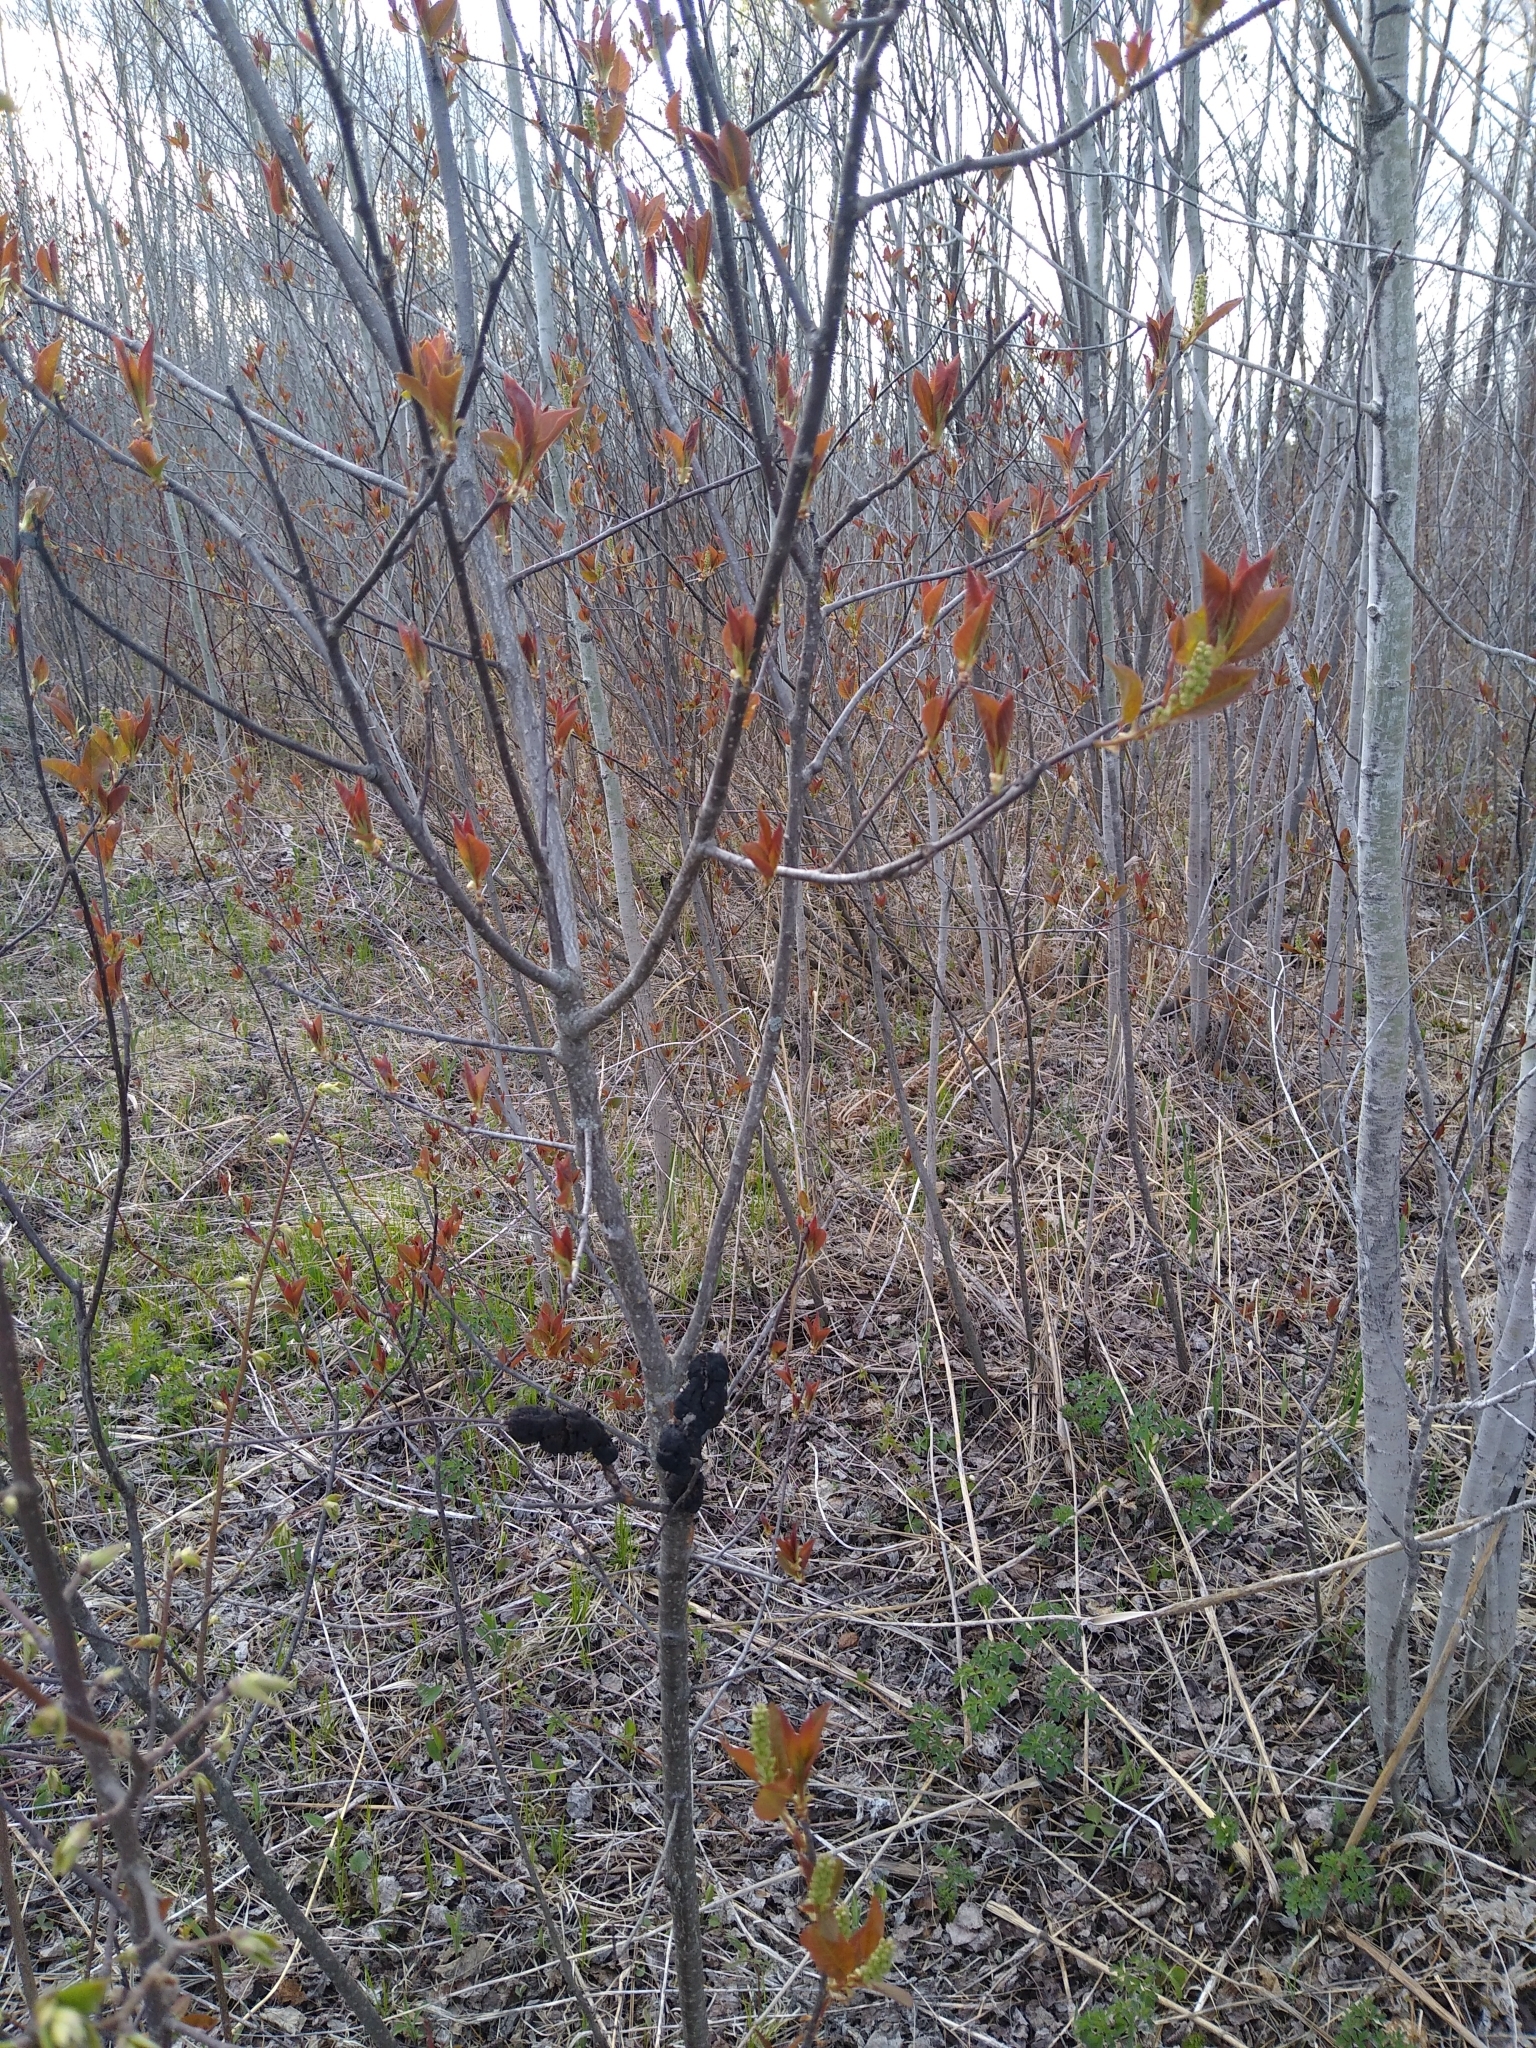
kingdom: Plantae
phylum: Tracheophyta
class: Magnoliopsida
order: Rosales
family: Rosaceae
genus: Prunus
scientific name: Prunus virginiana
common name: Chokecherry
